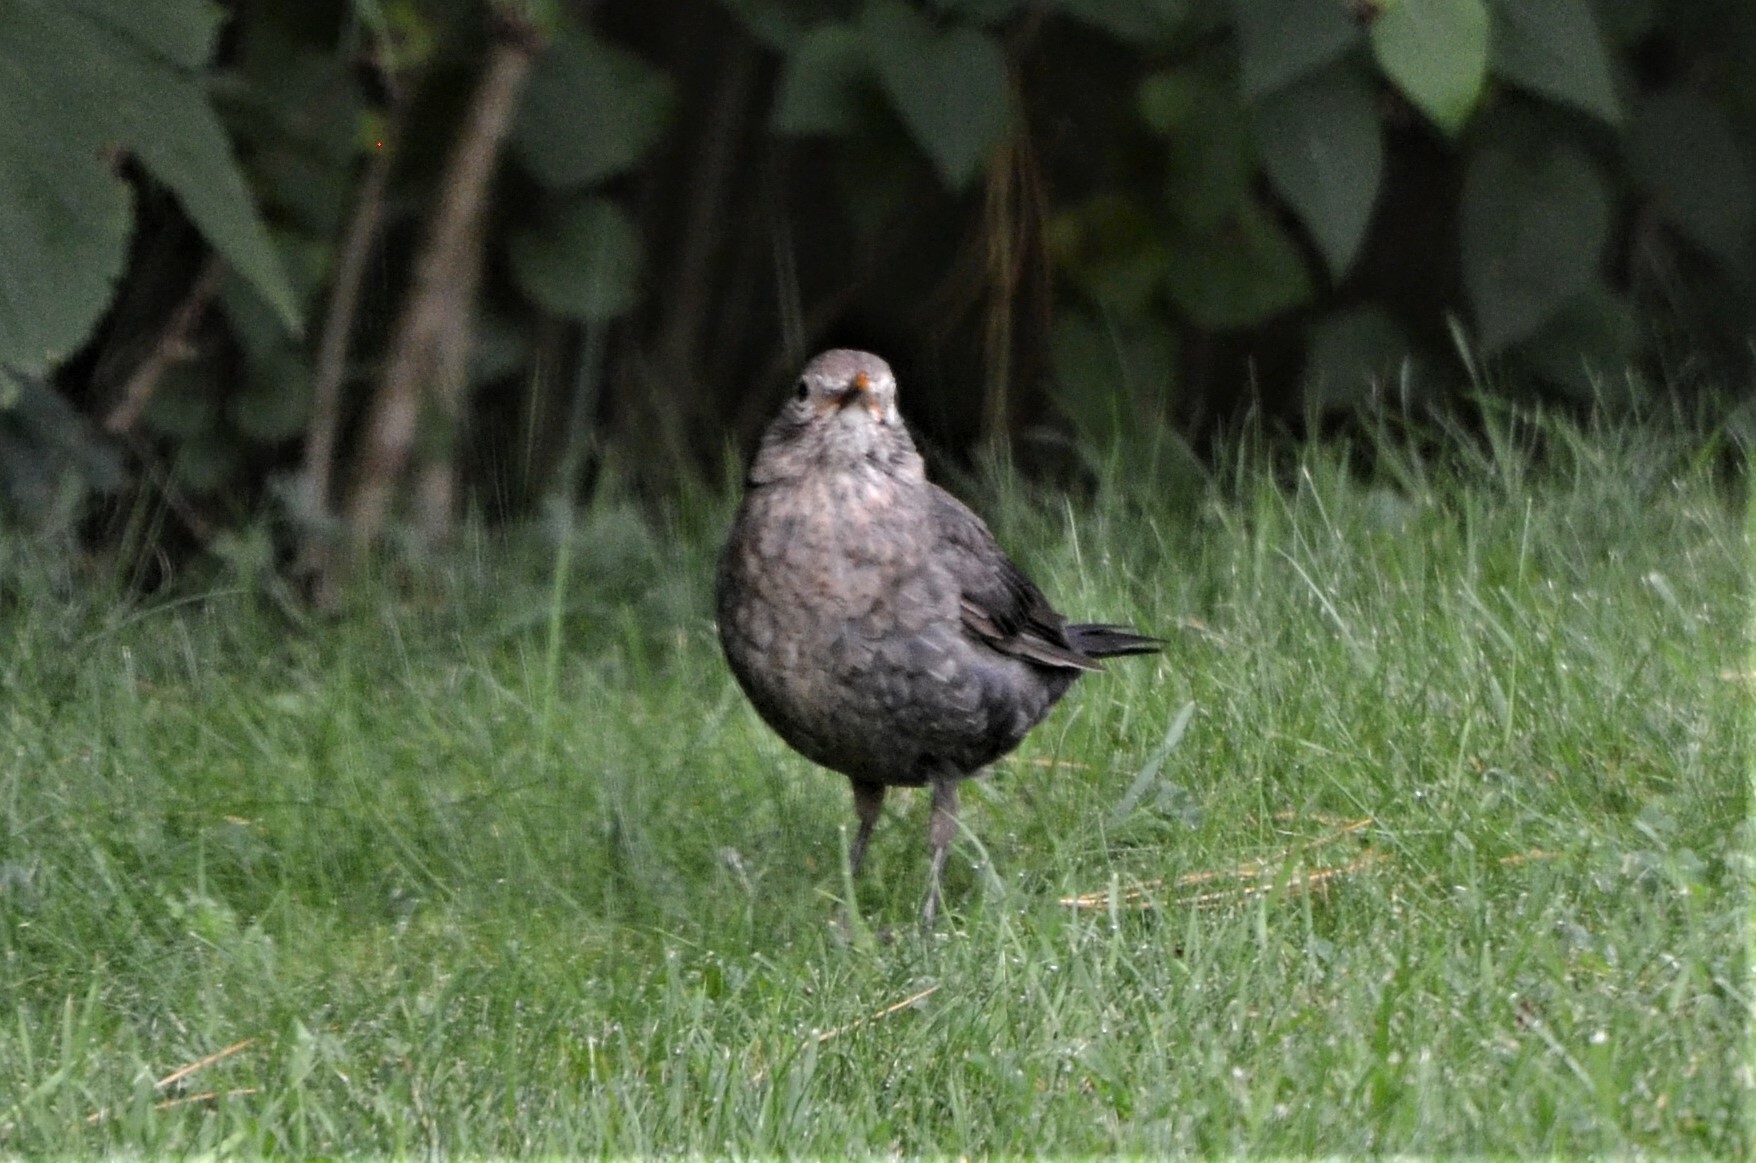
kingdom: Animalia
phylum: Chordata
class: Aves
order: Passeriformes
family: Turdidae
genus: Turdus
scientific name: Turdus merula
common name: Common blackbird
